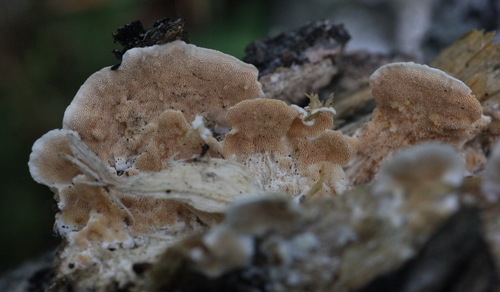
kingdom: Fungi
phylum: Basidiomycota
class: Agaricomycetes
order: Polyporales
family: Steccherinaceae
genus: Steccherinum
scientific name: Steccherinum ochraceum
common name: Ochre spreading tooth
